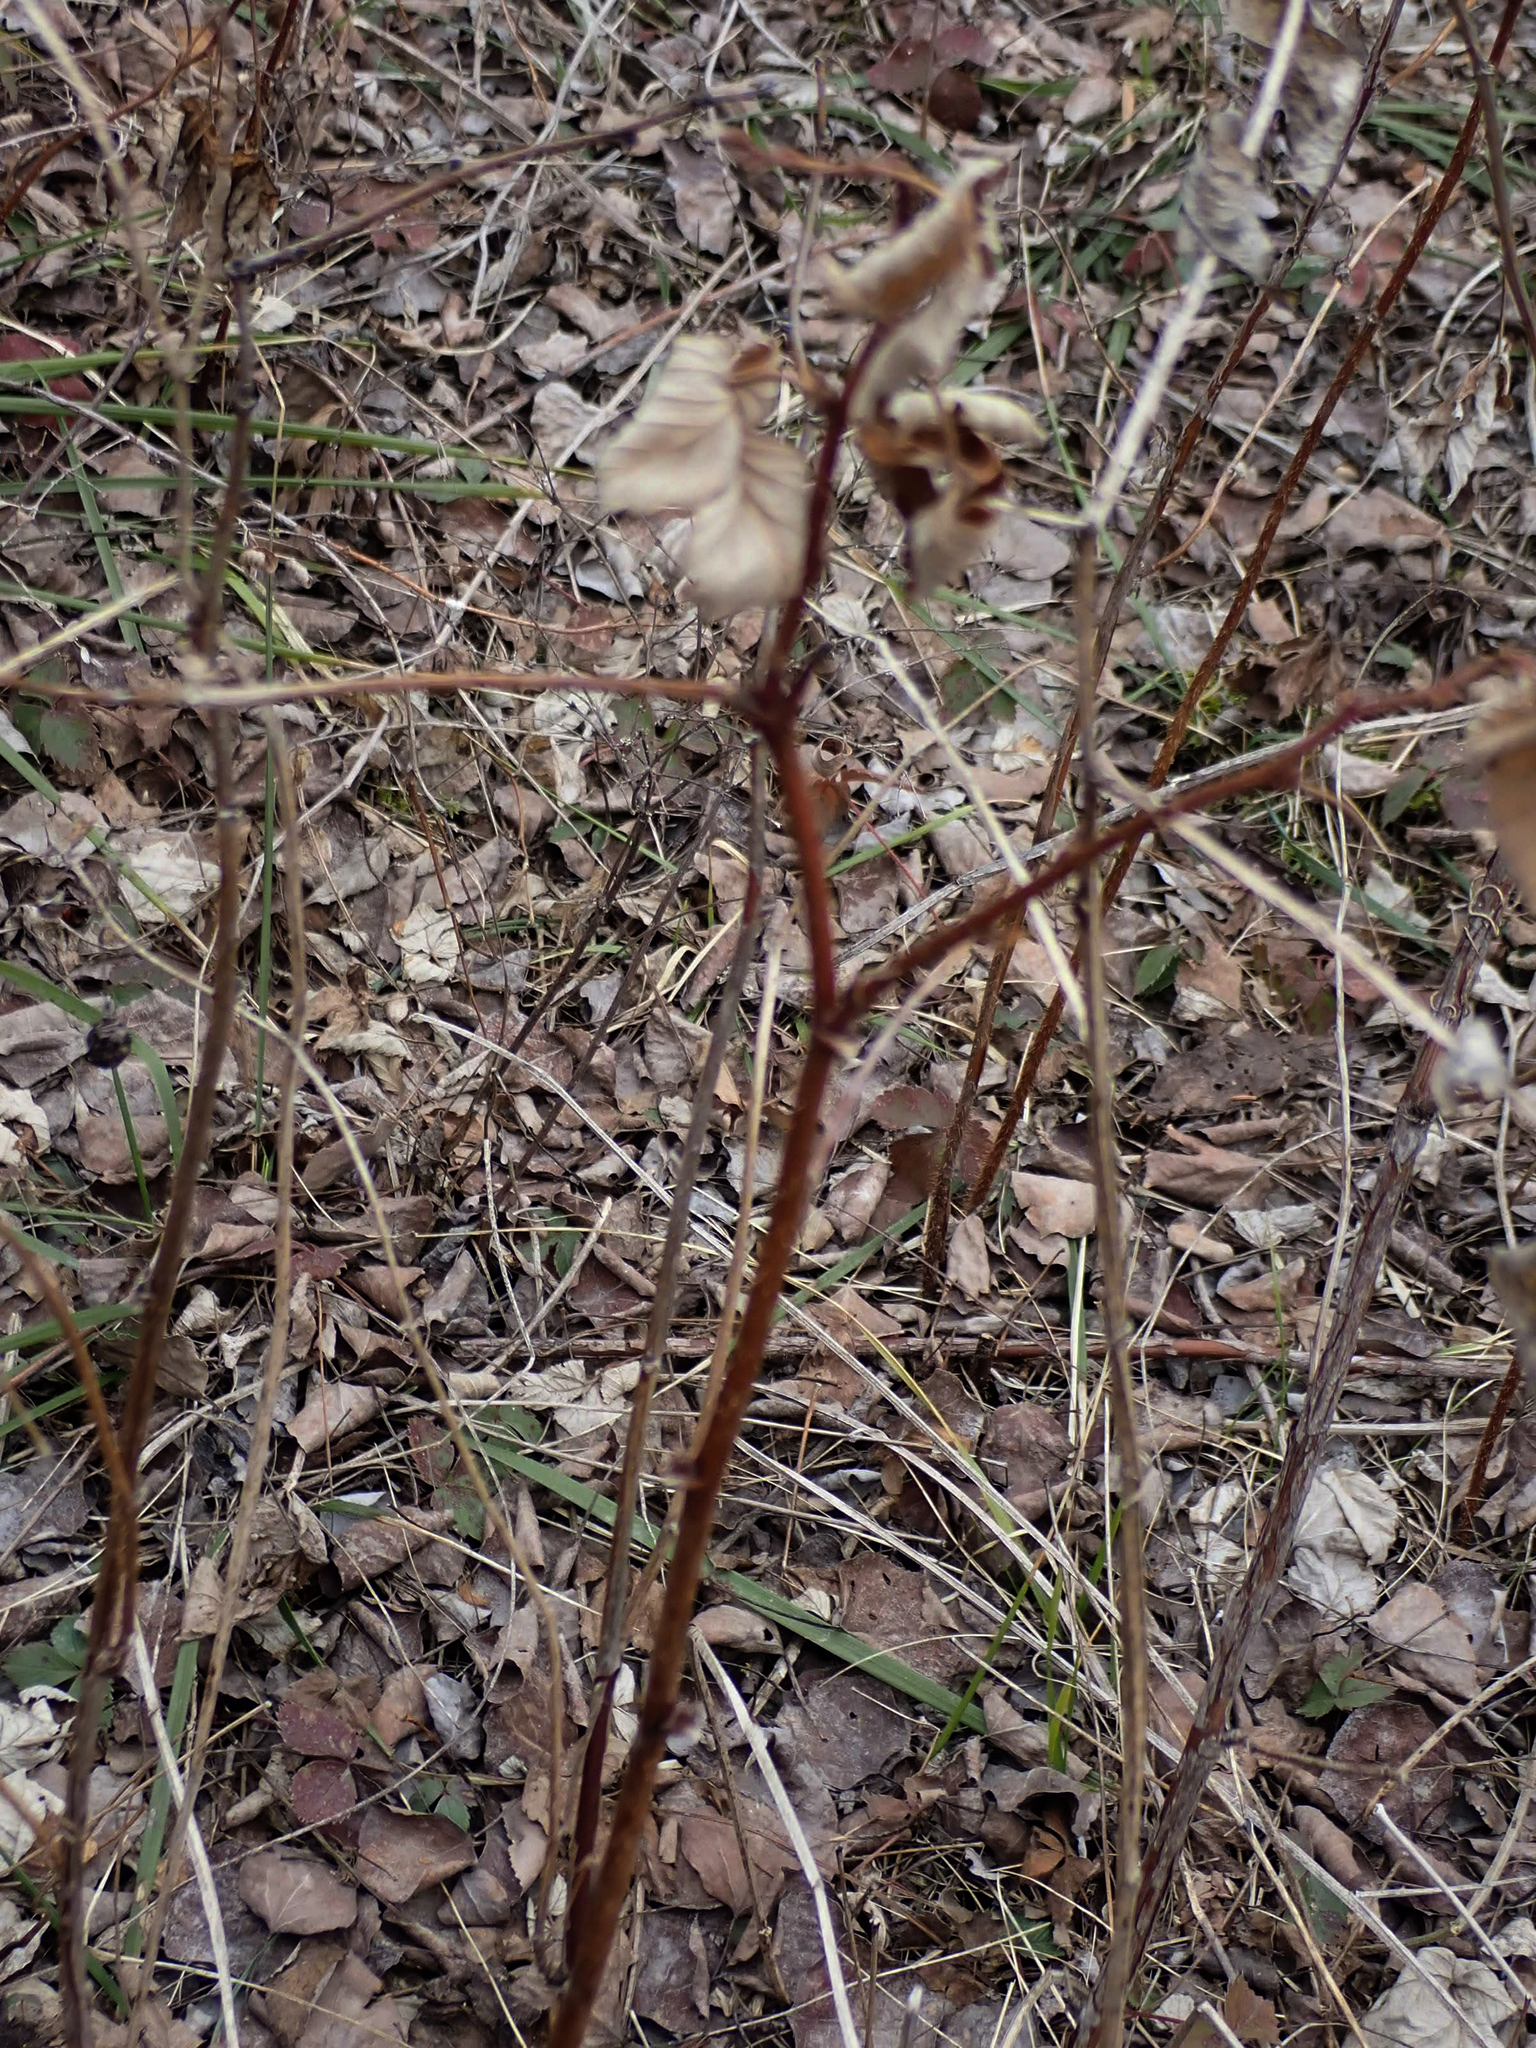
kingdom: Plantae
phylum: Tracheophyta
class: Magnoliopsida
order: Rosales
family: Rosaceae
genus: Rubus
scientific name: Rubus idaeus
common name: Raspberry
